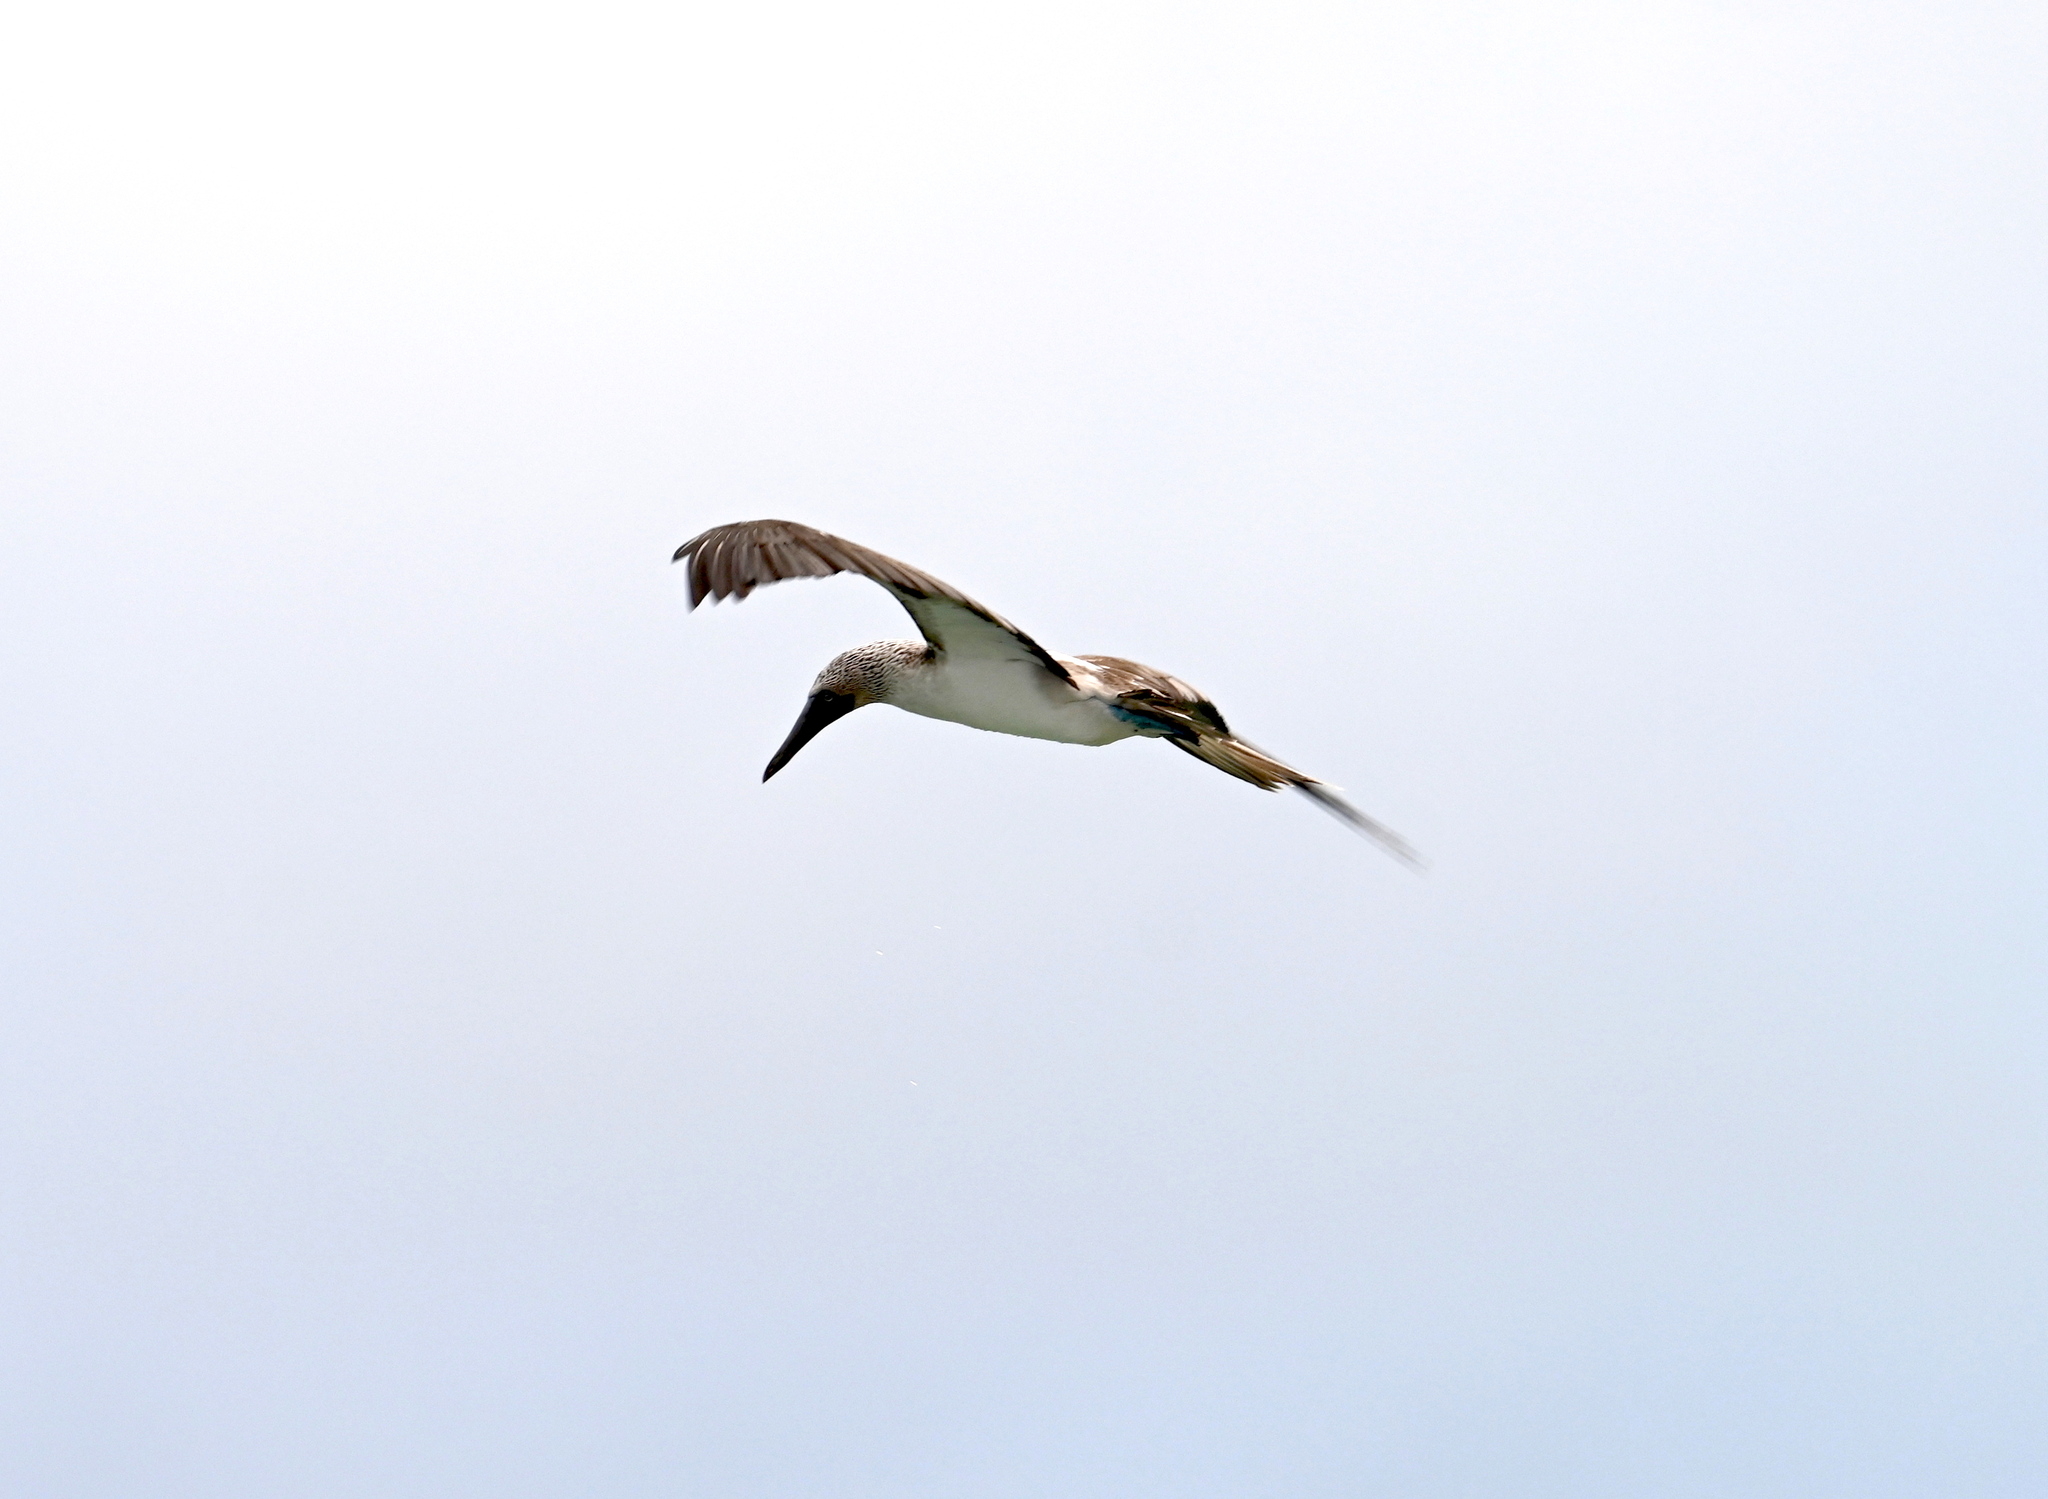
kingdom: Animalia
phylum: Chordata
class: Aves
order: Suliformes
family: Sulidae
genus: Sula
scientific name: Sula nebouxii
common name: Blue-footed booby
